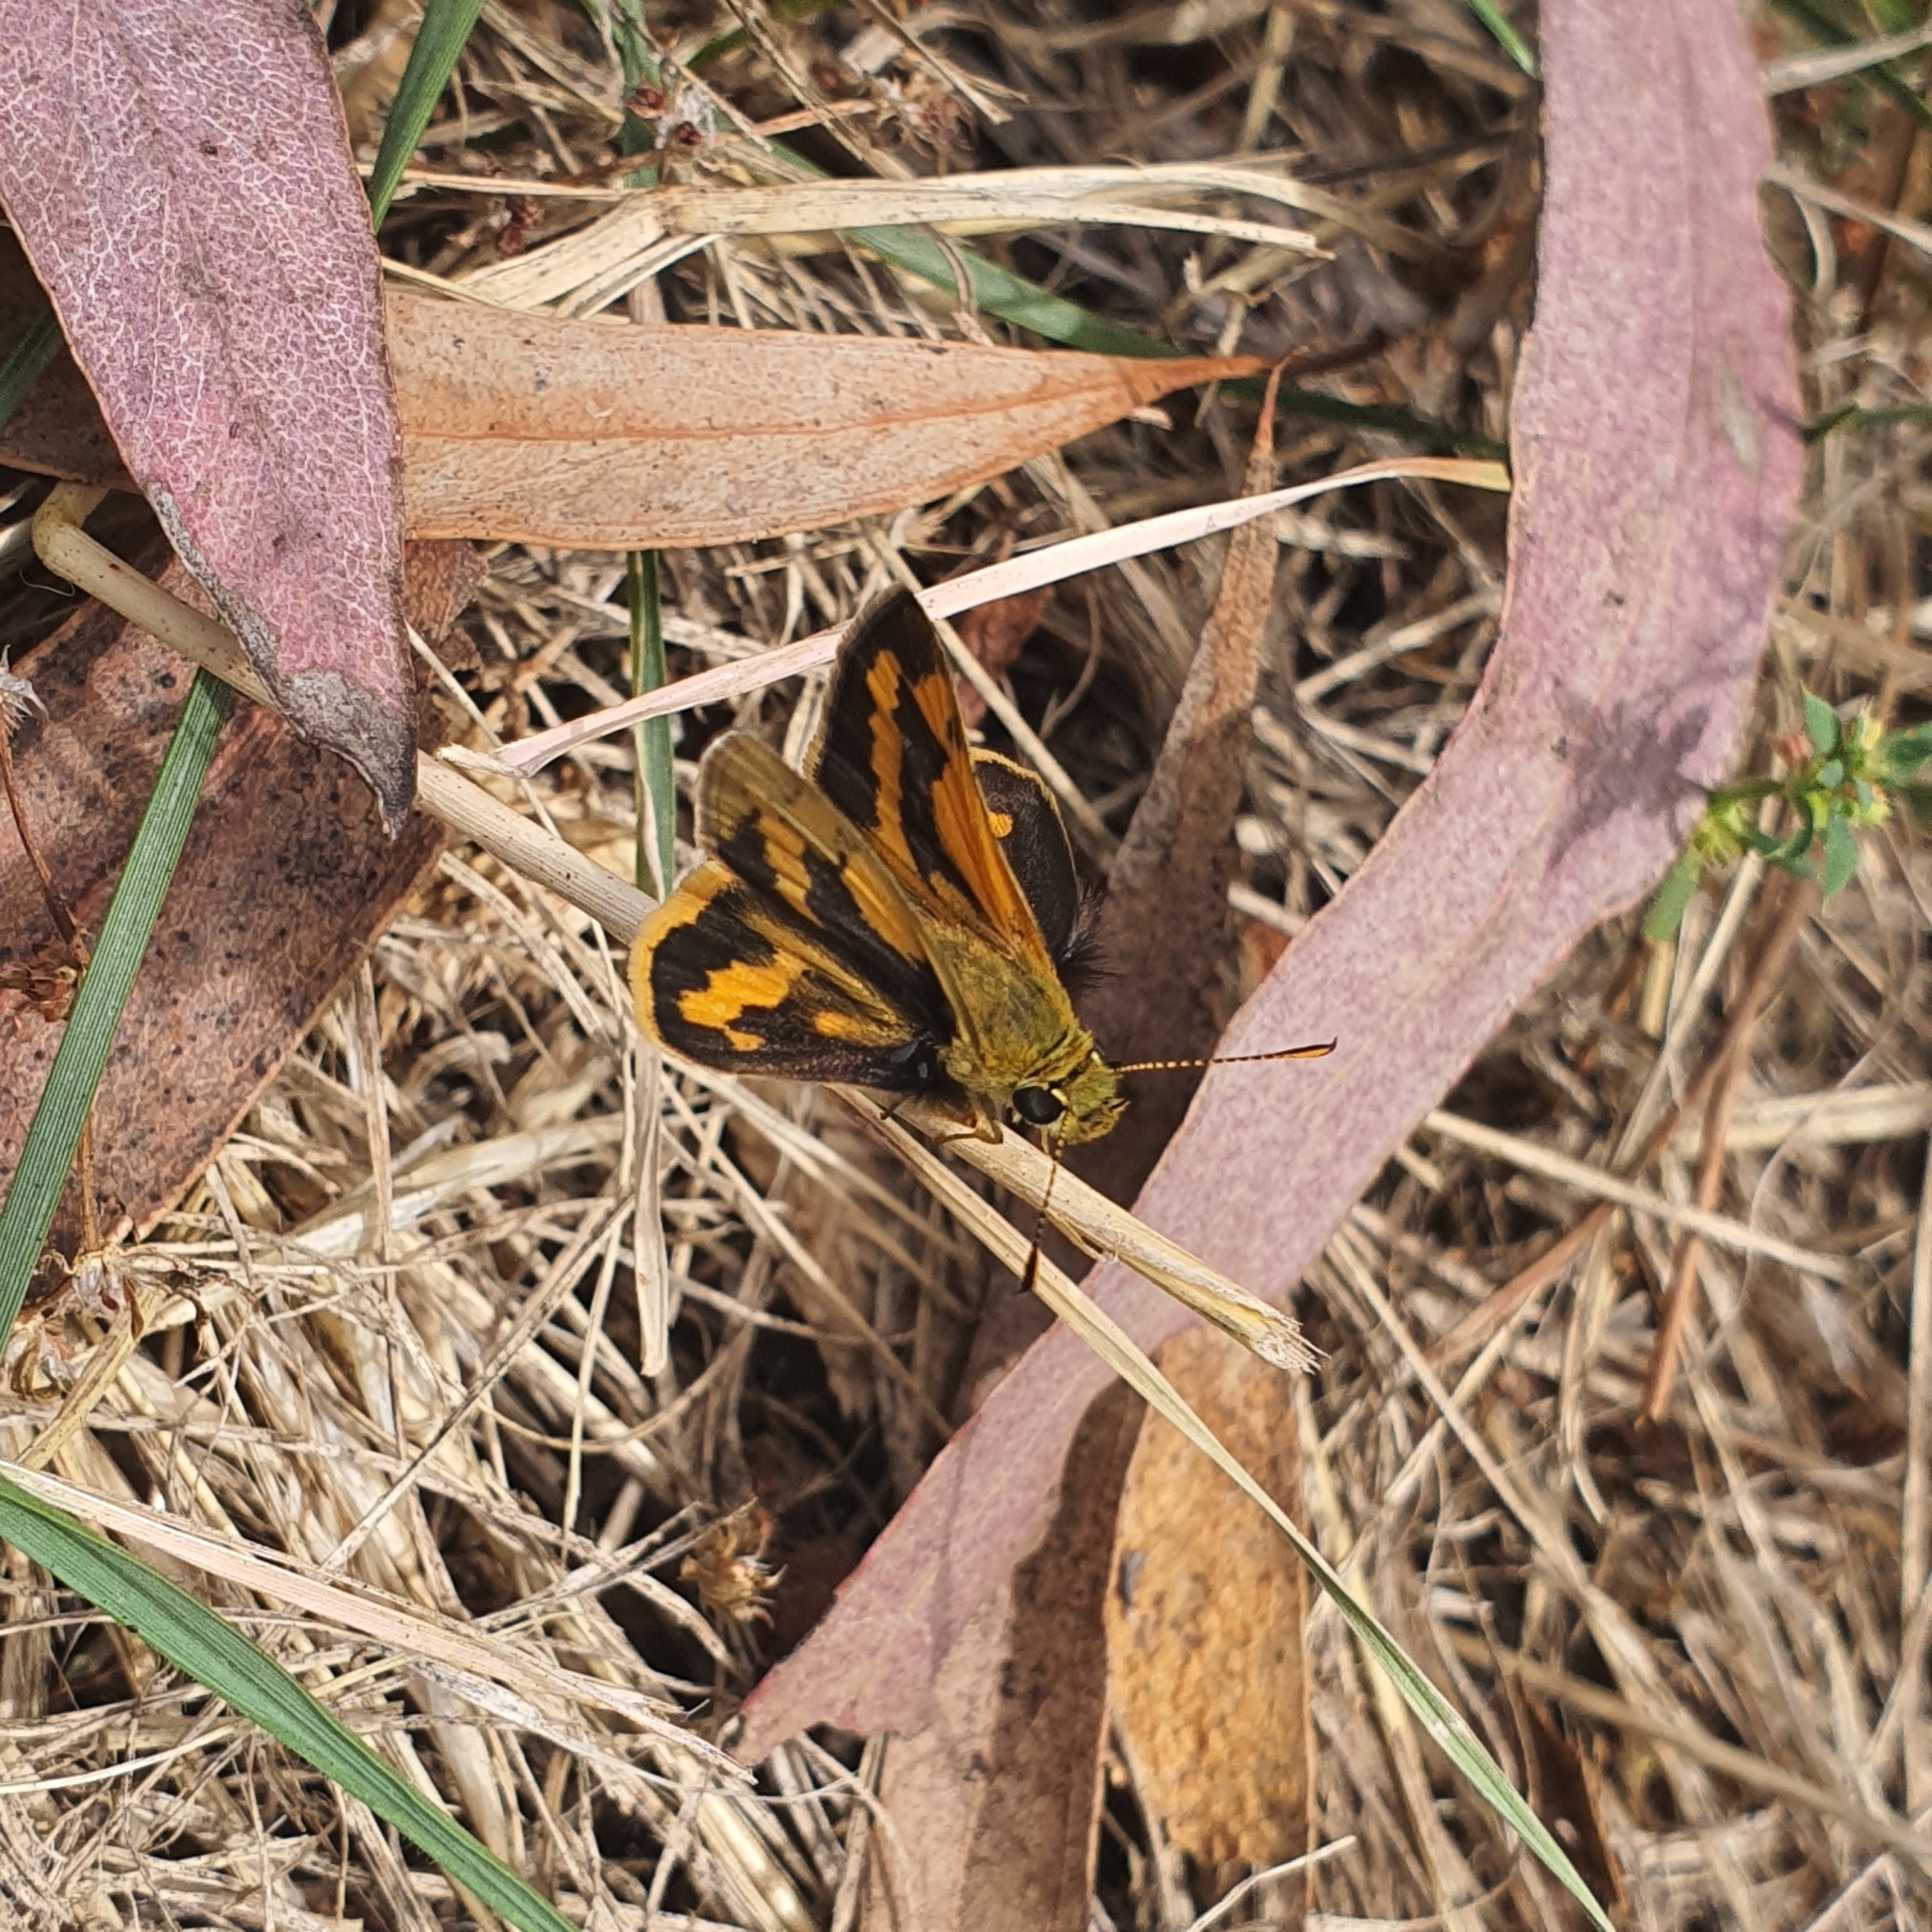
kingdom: Animalia
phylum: Arthropoda
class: Insecta
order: Lepidoptera
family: Hesperiidae
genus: Ocybadistes
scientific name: Ocybadistes walkeri
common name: Yellow-banded dart
